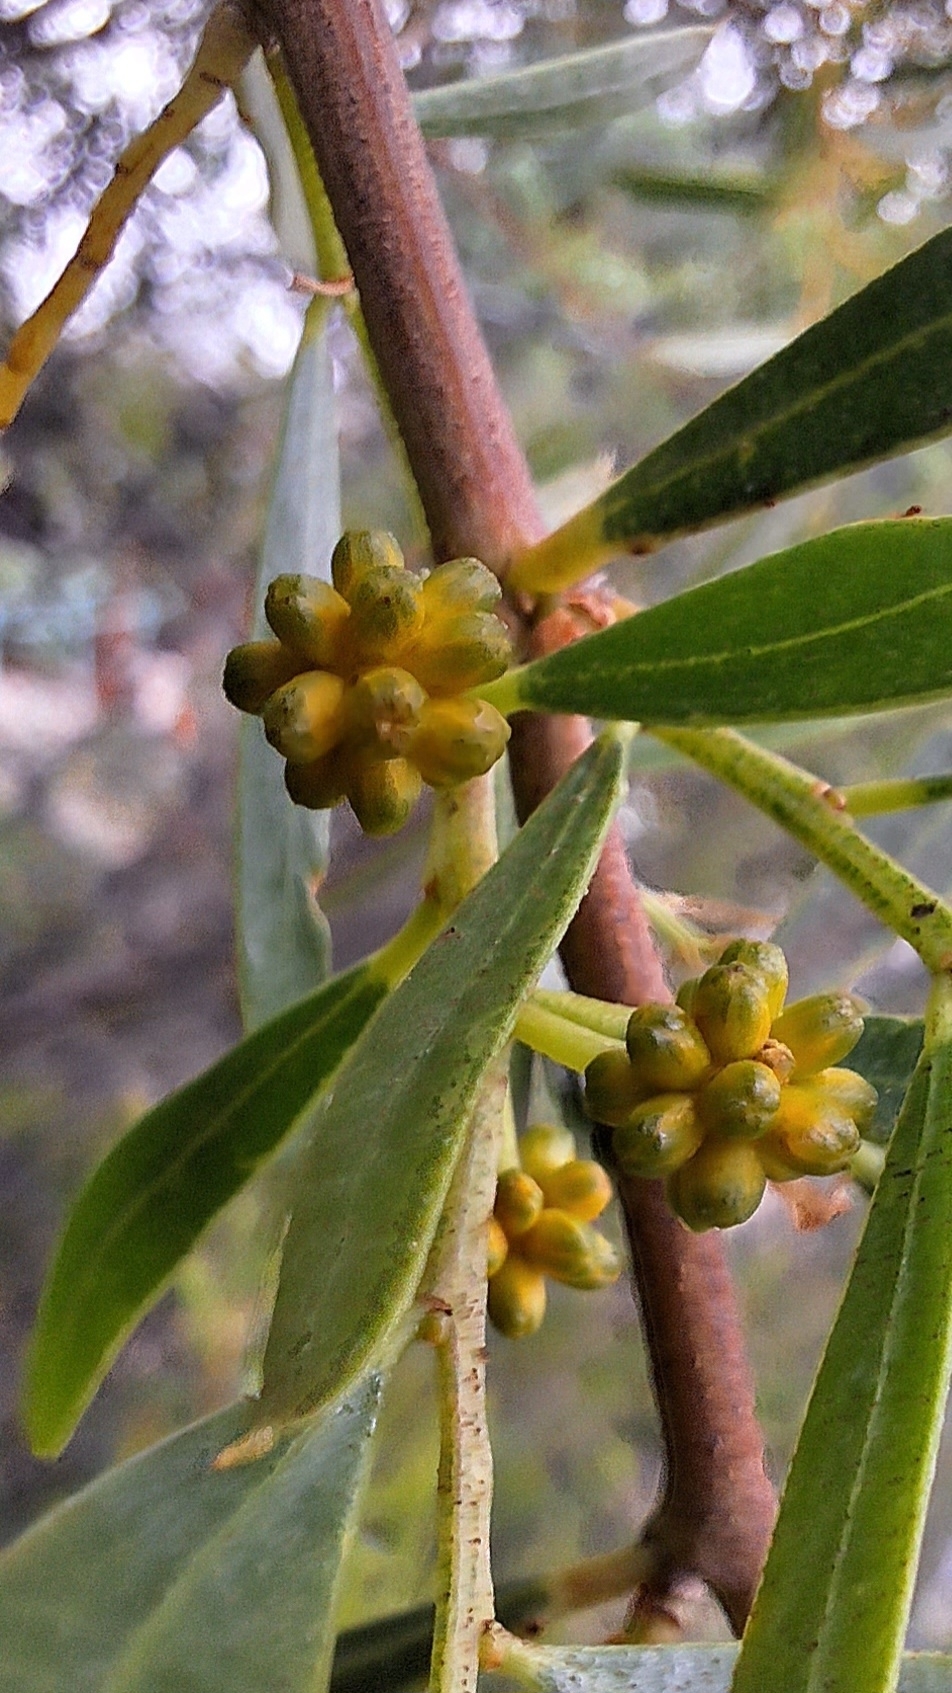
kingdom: Plantae
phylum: Tracheophyta
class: Magnoliopsida
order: Fabales
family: Fabaceae
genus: Acacia
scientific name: Acacia ligulata
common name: Dune wattle
